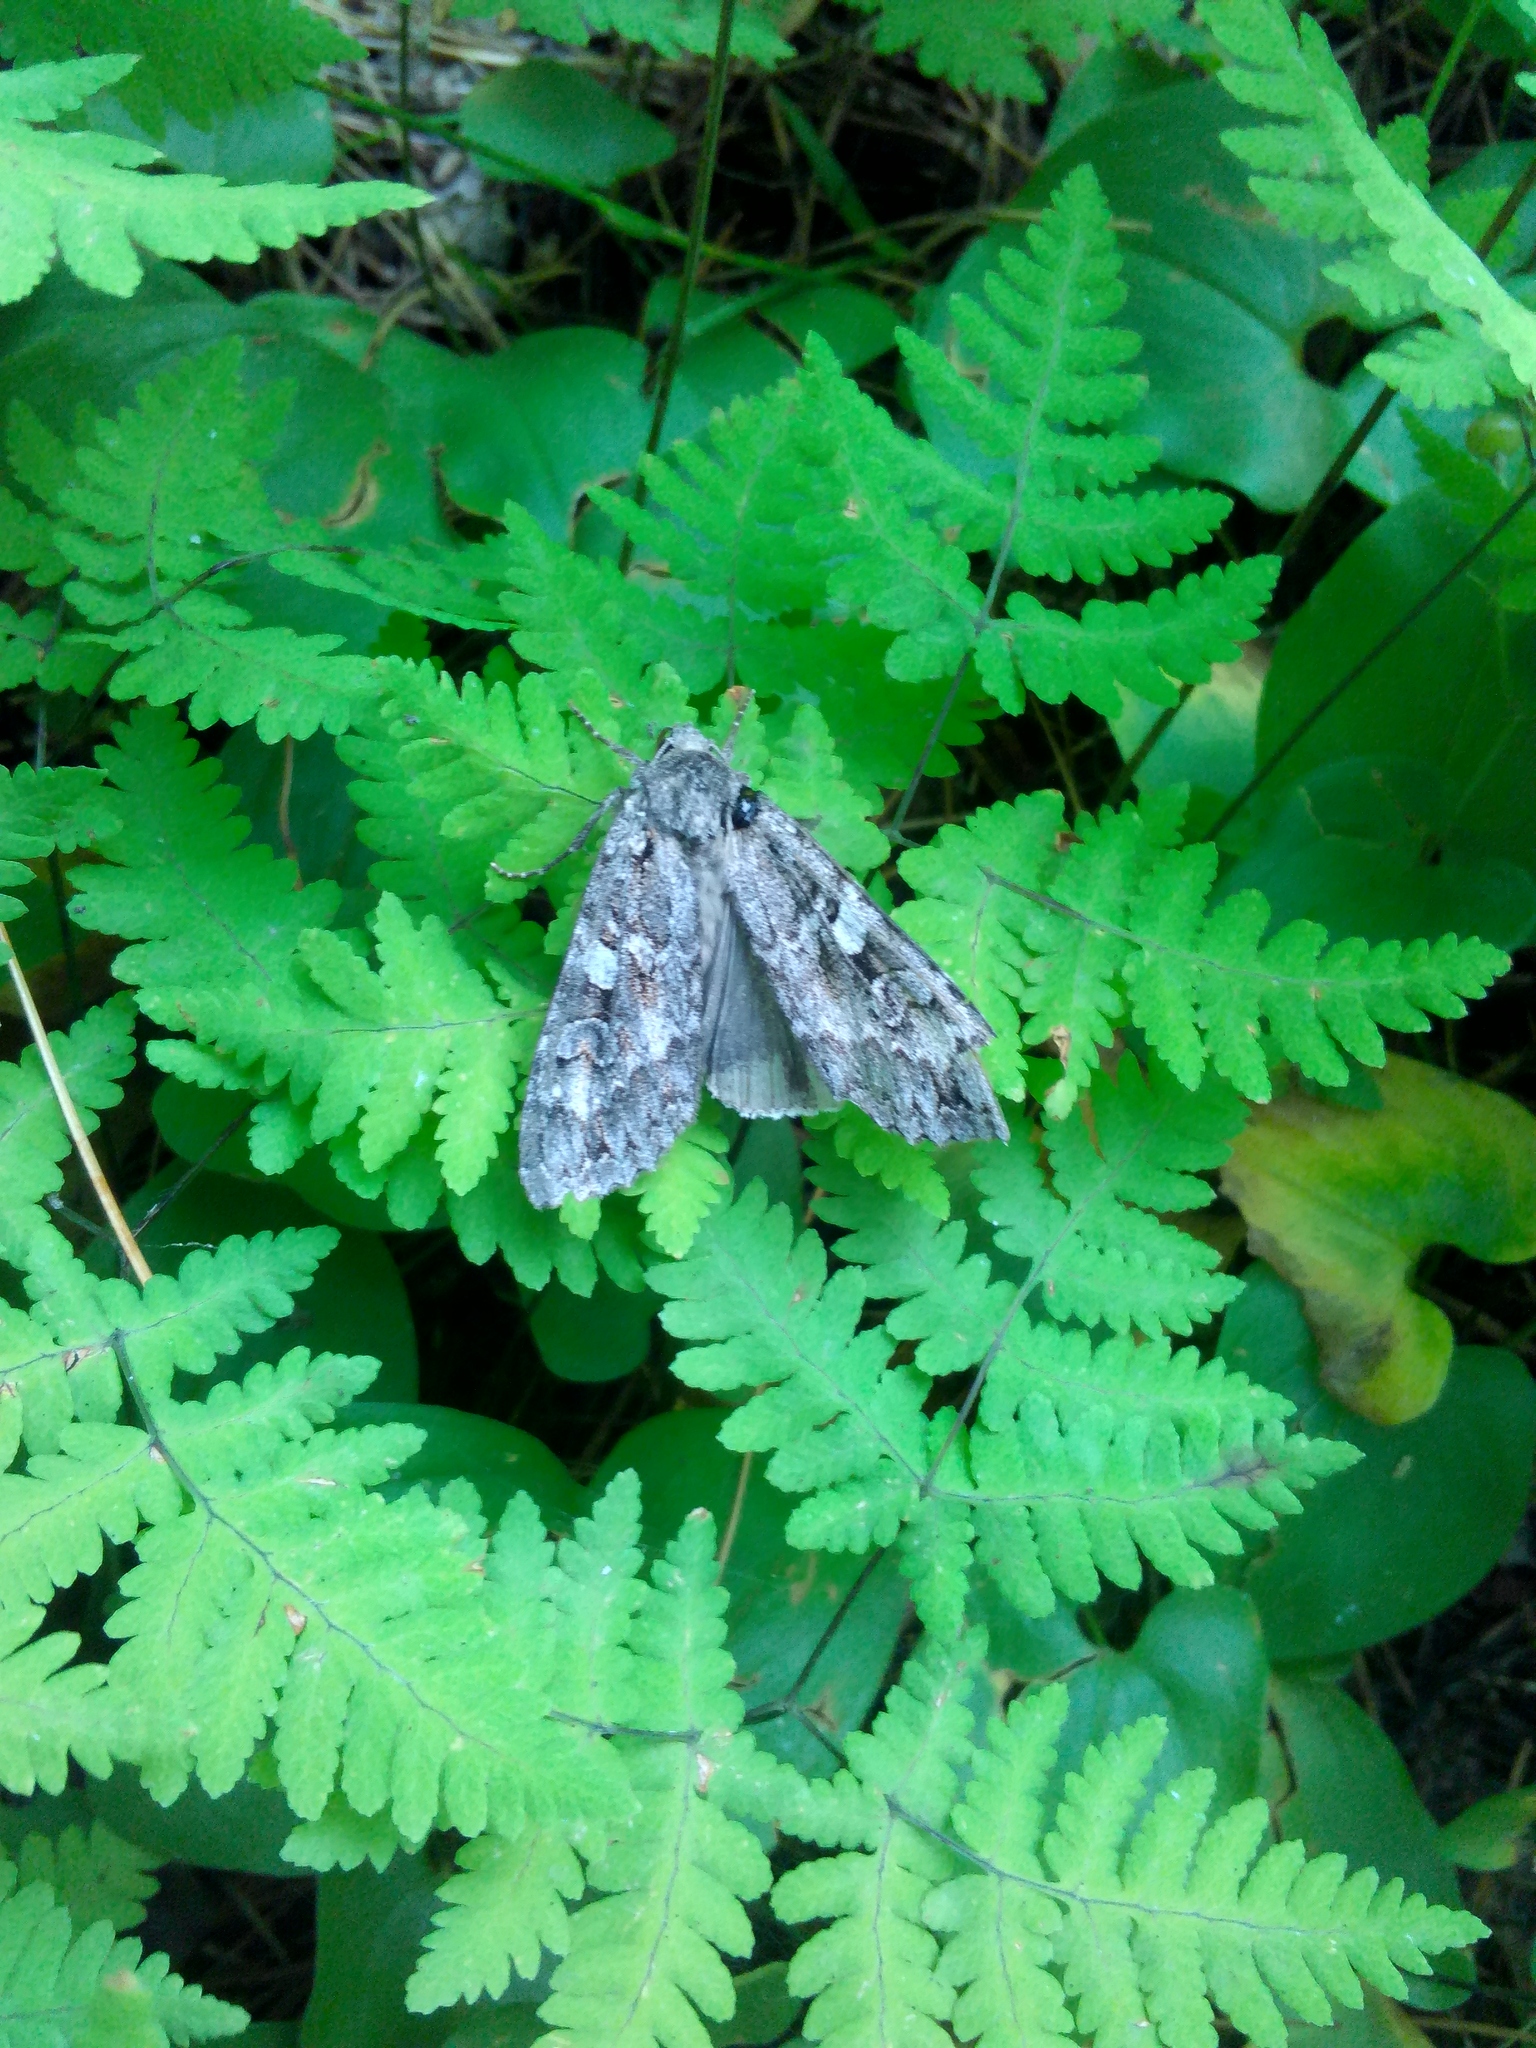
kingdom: Animalia
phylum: Arthropoda
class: Insecta
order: Lepidoptera
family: Noctuidae
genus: Eurois
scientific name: Eurois occulta
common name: Great brocade
